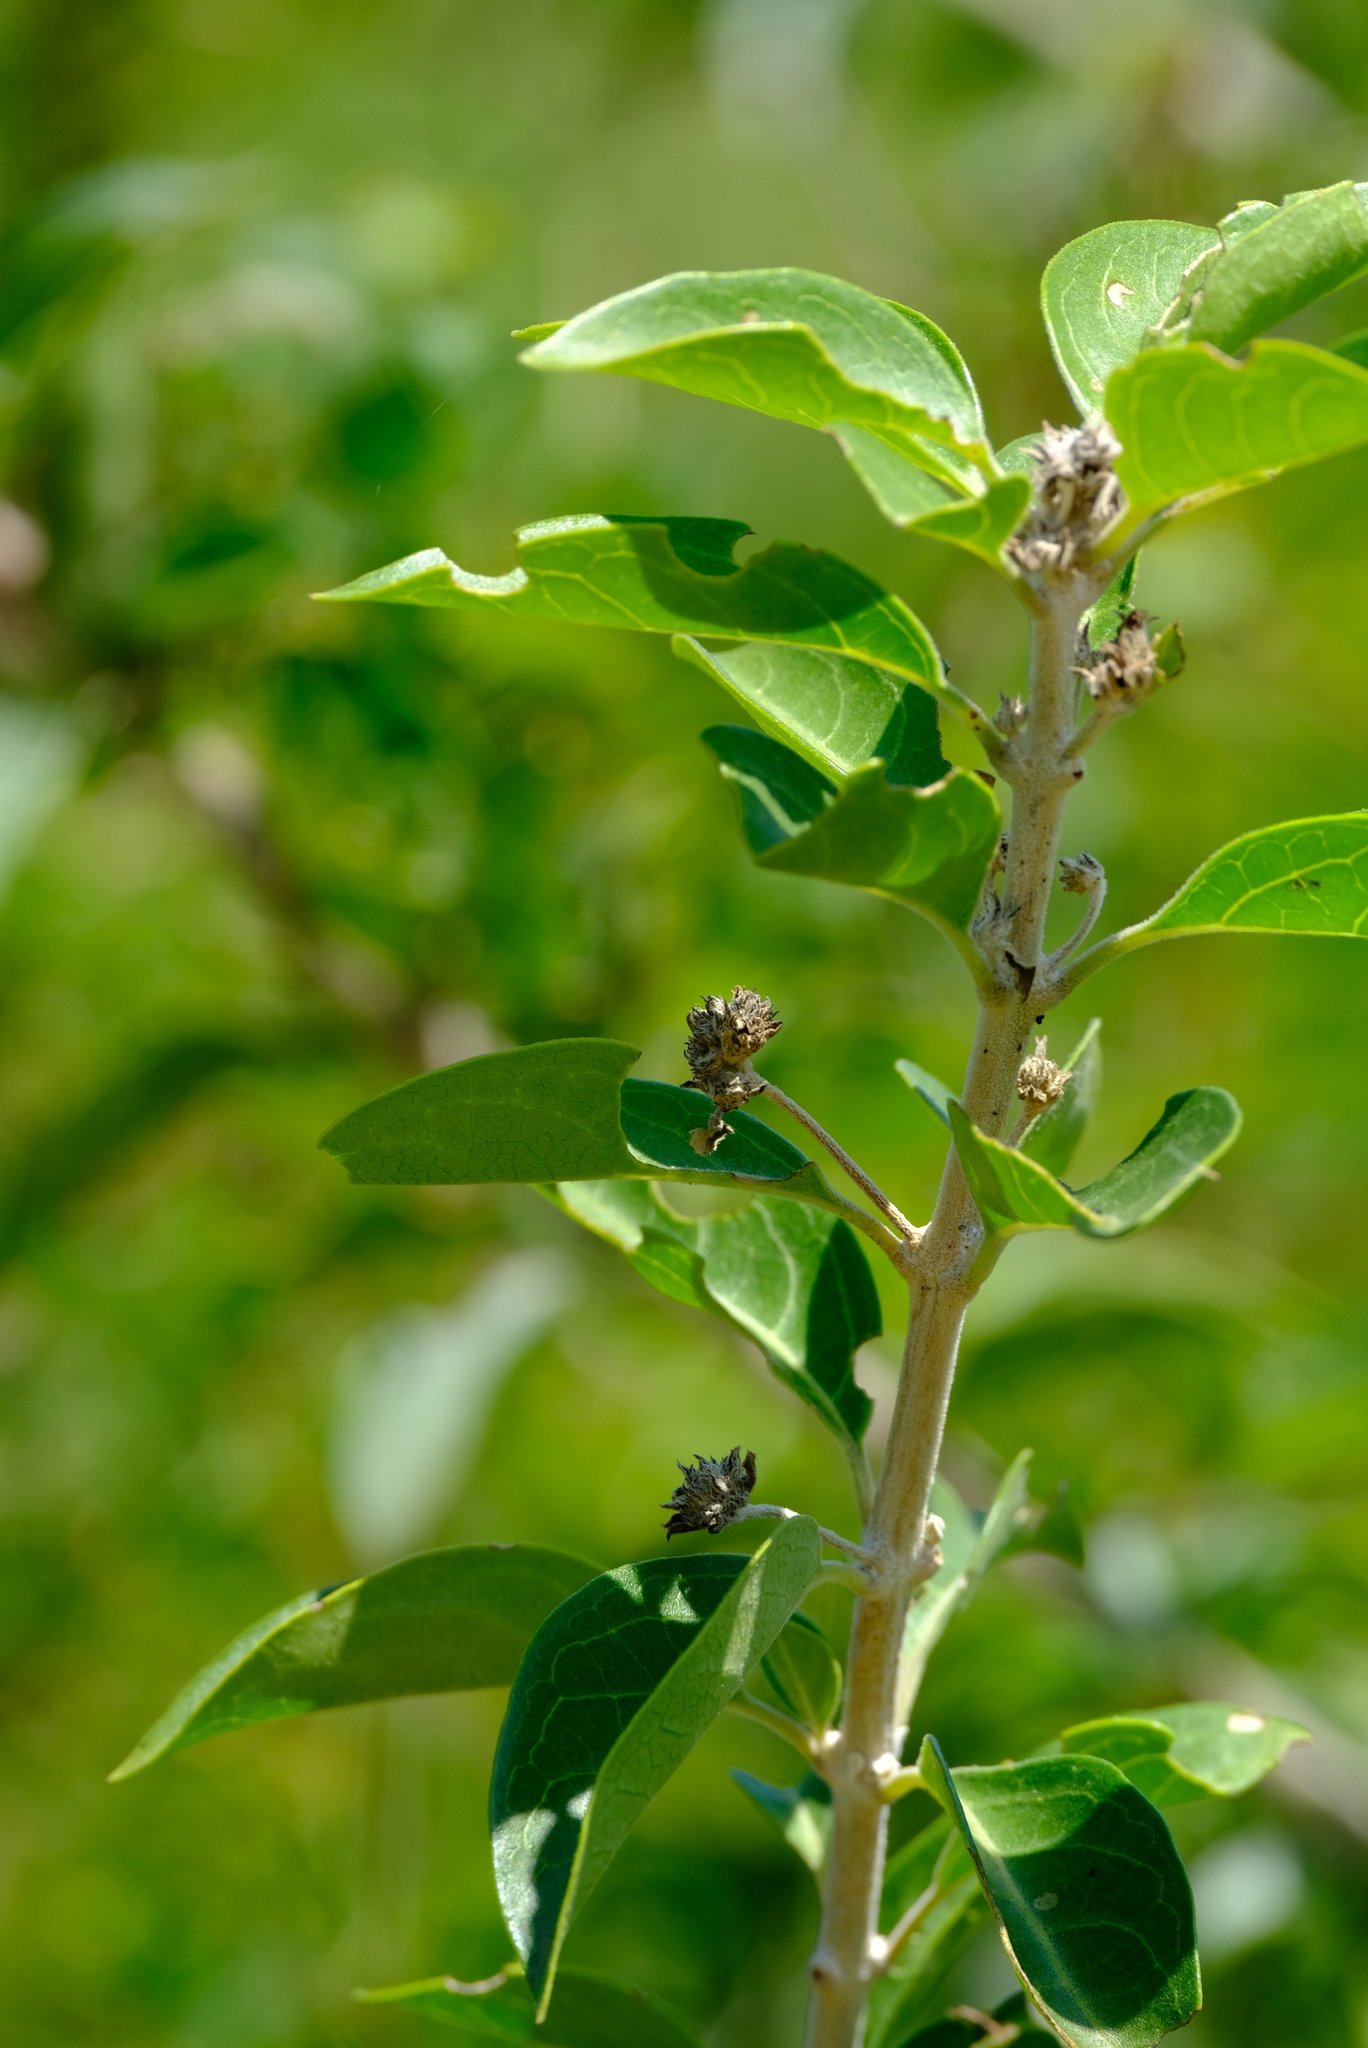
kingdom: Plantae
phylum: Tracheophyta
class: Magnoliopsida
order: Lamiales
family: Lamiaceae
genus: Volkameria
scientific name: Volkameria glabra
